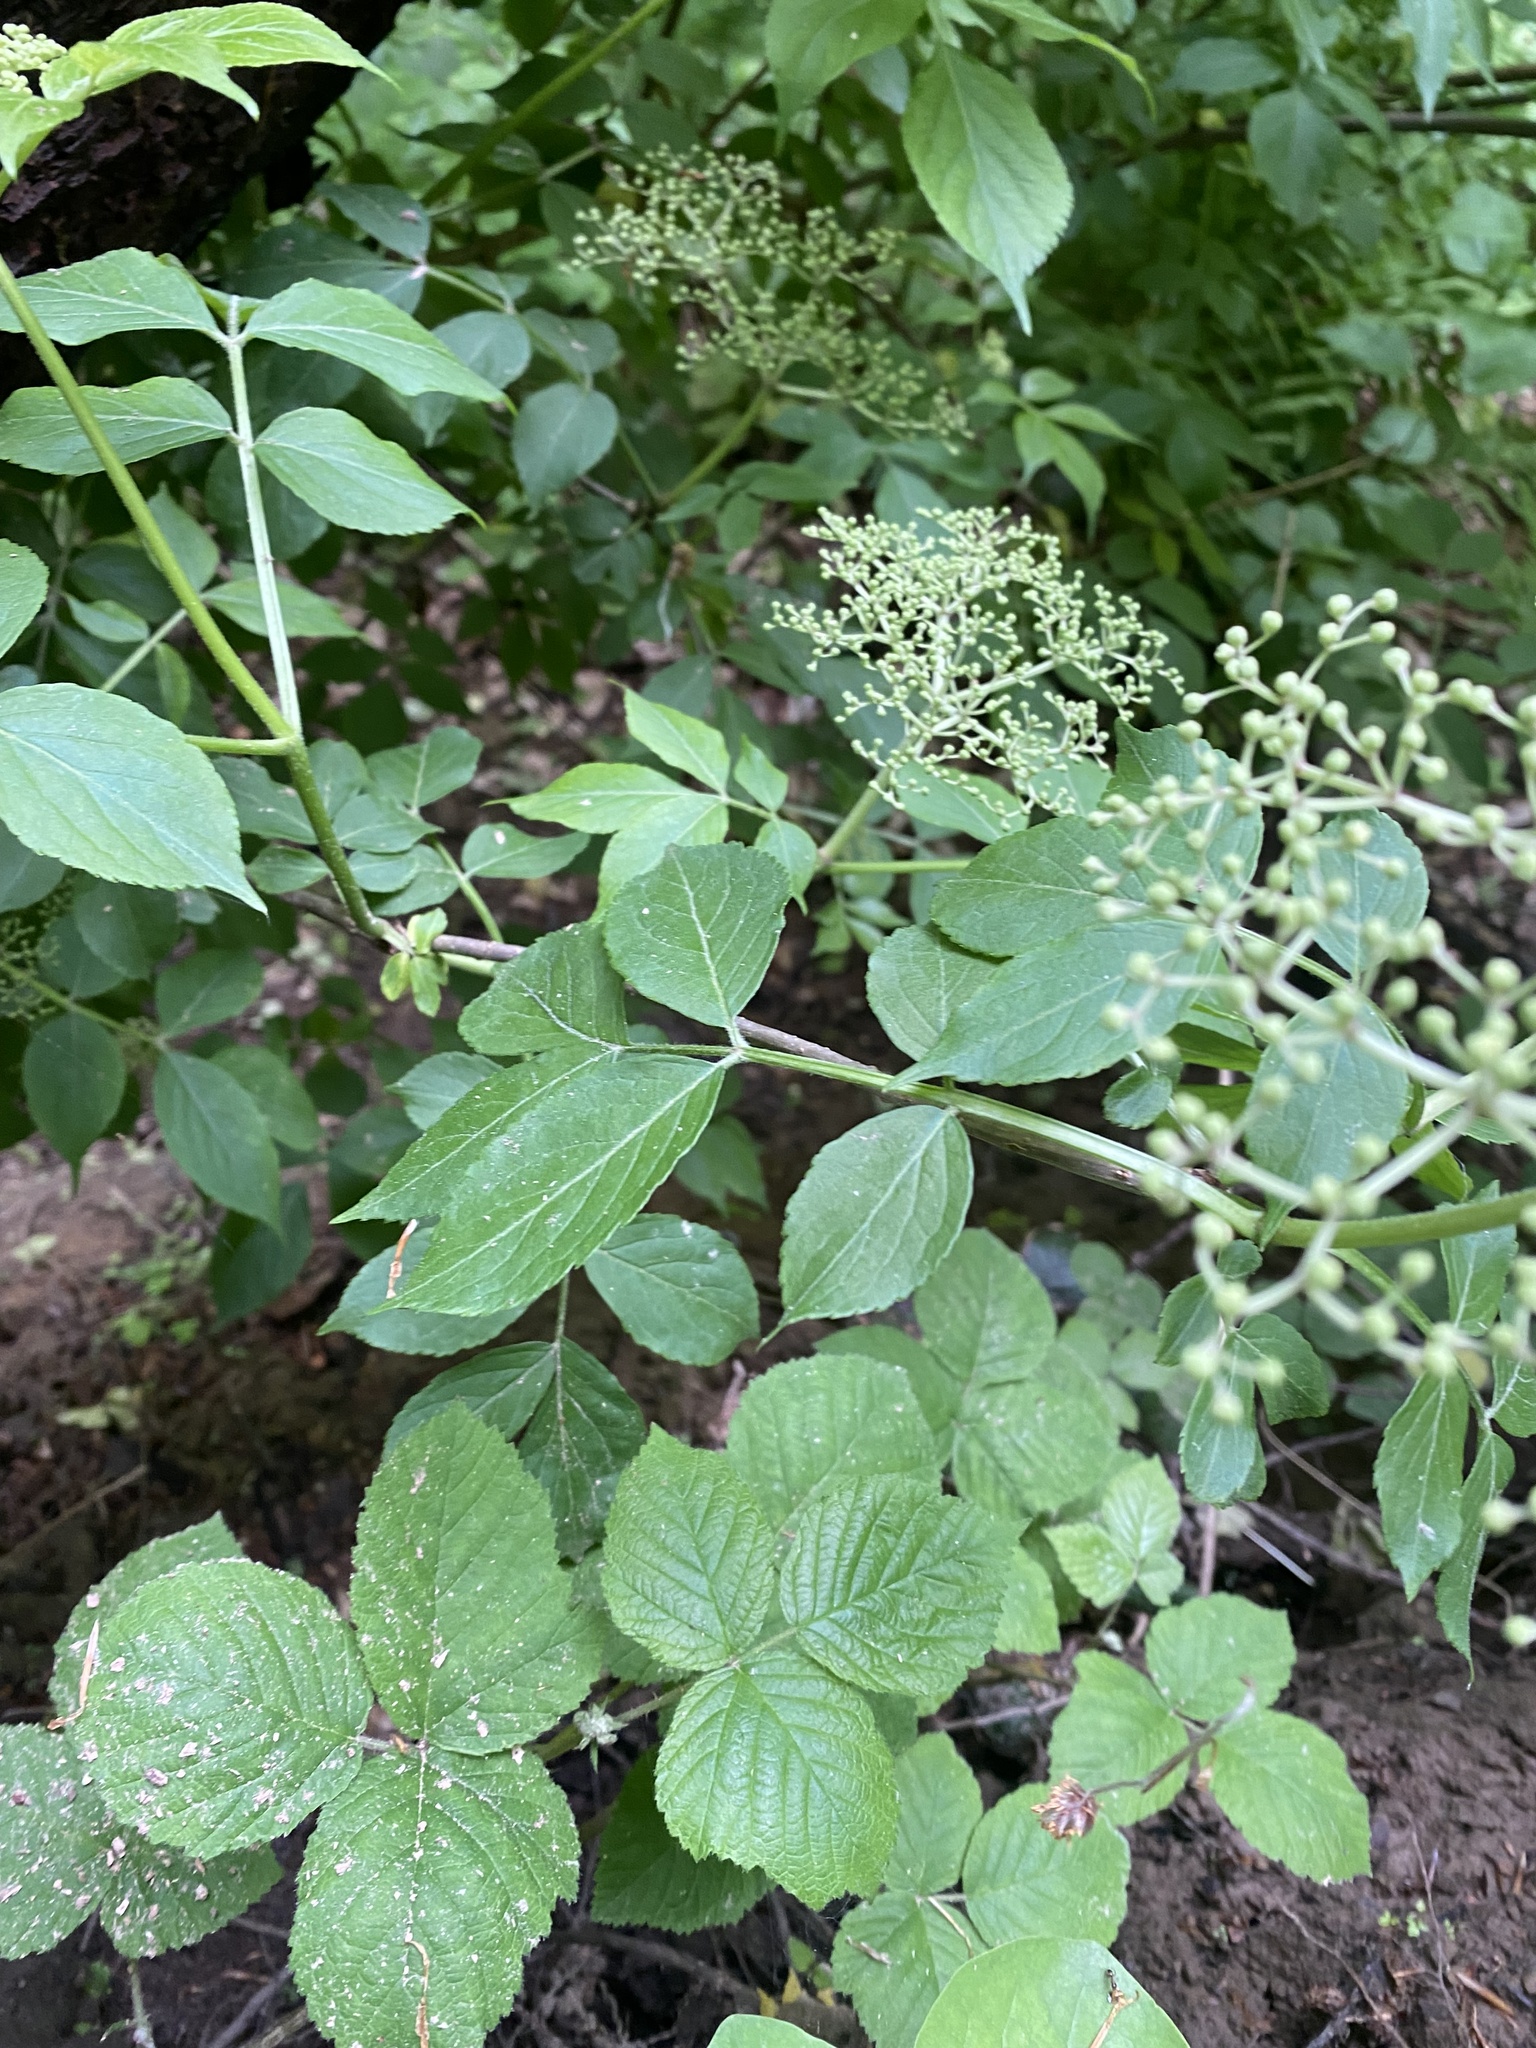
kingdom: Plantae
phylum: Tracheophyta
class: Magnoliopsida
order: Dipsacales
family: Viburnaceae
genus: Sambucus
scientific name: Sambucus nigra
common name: Elder
